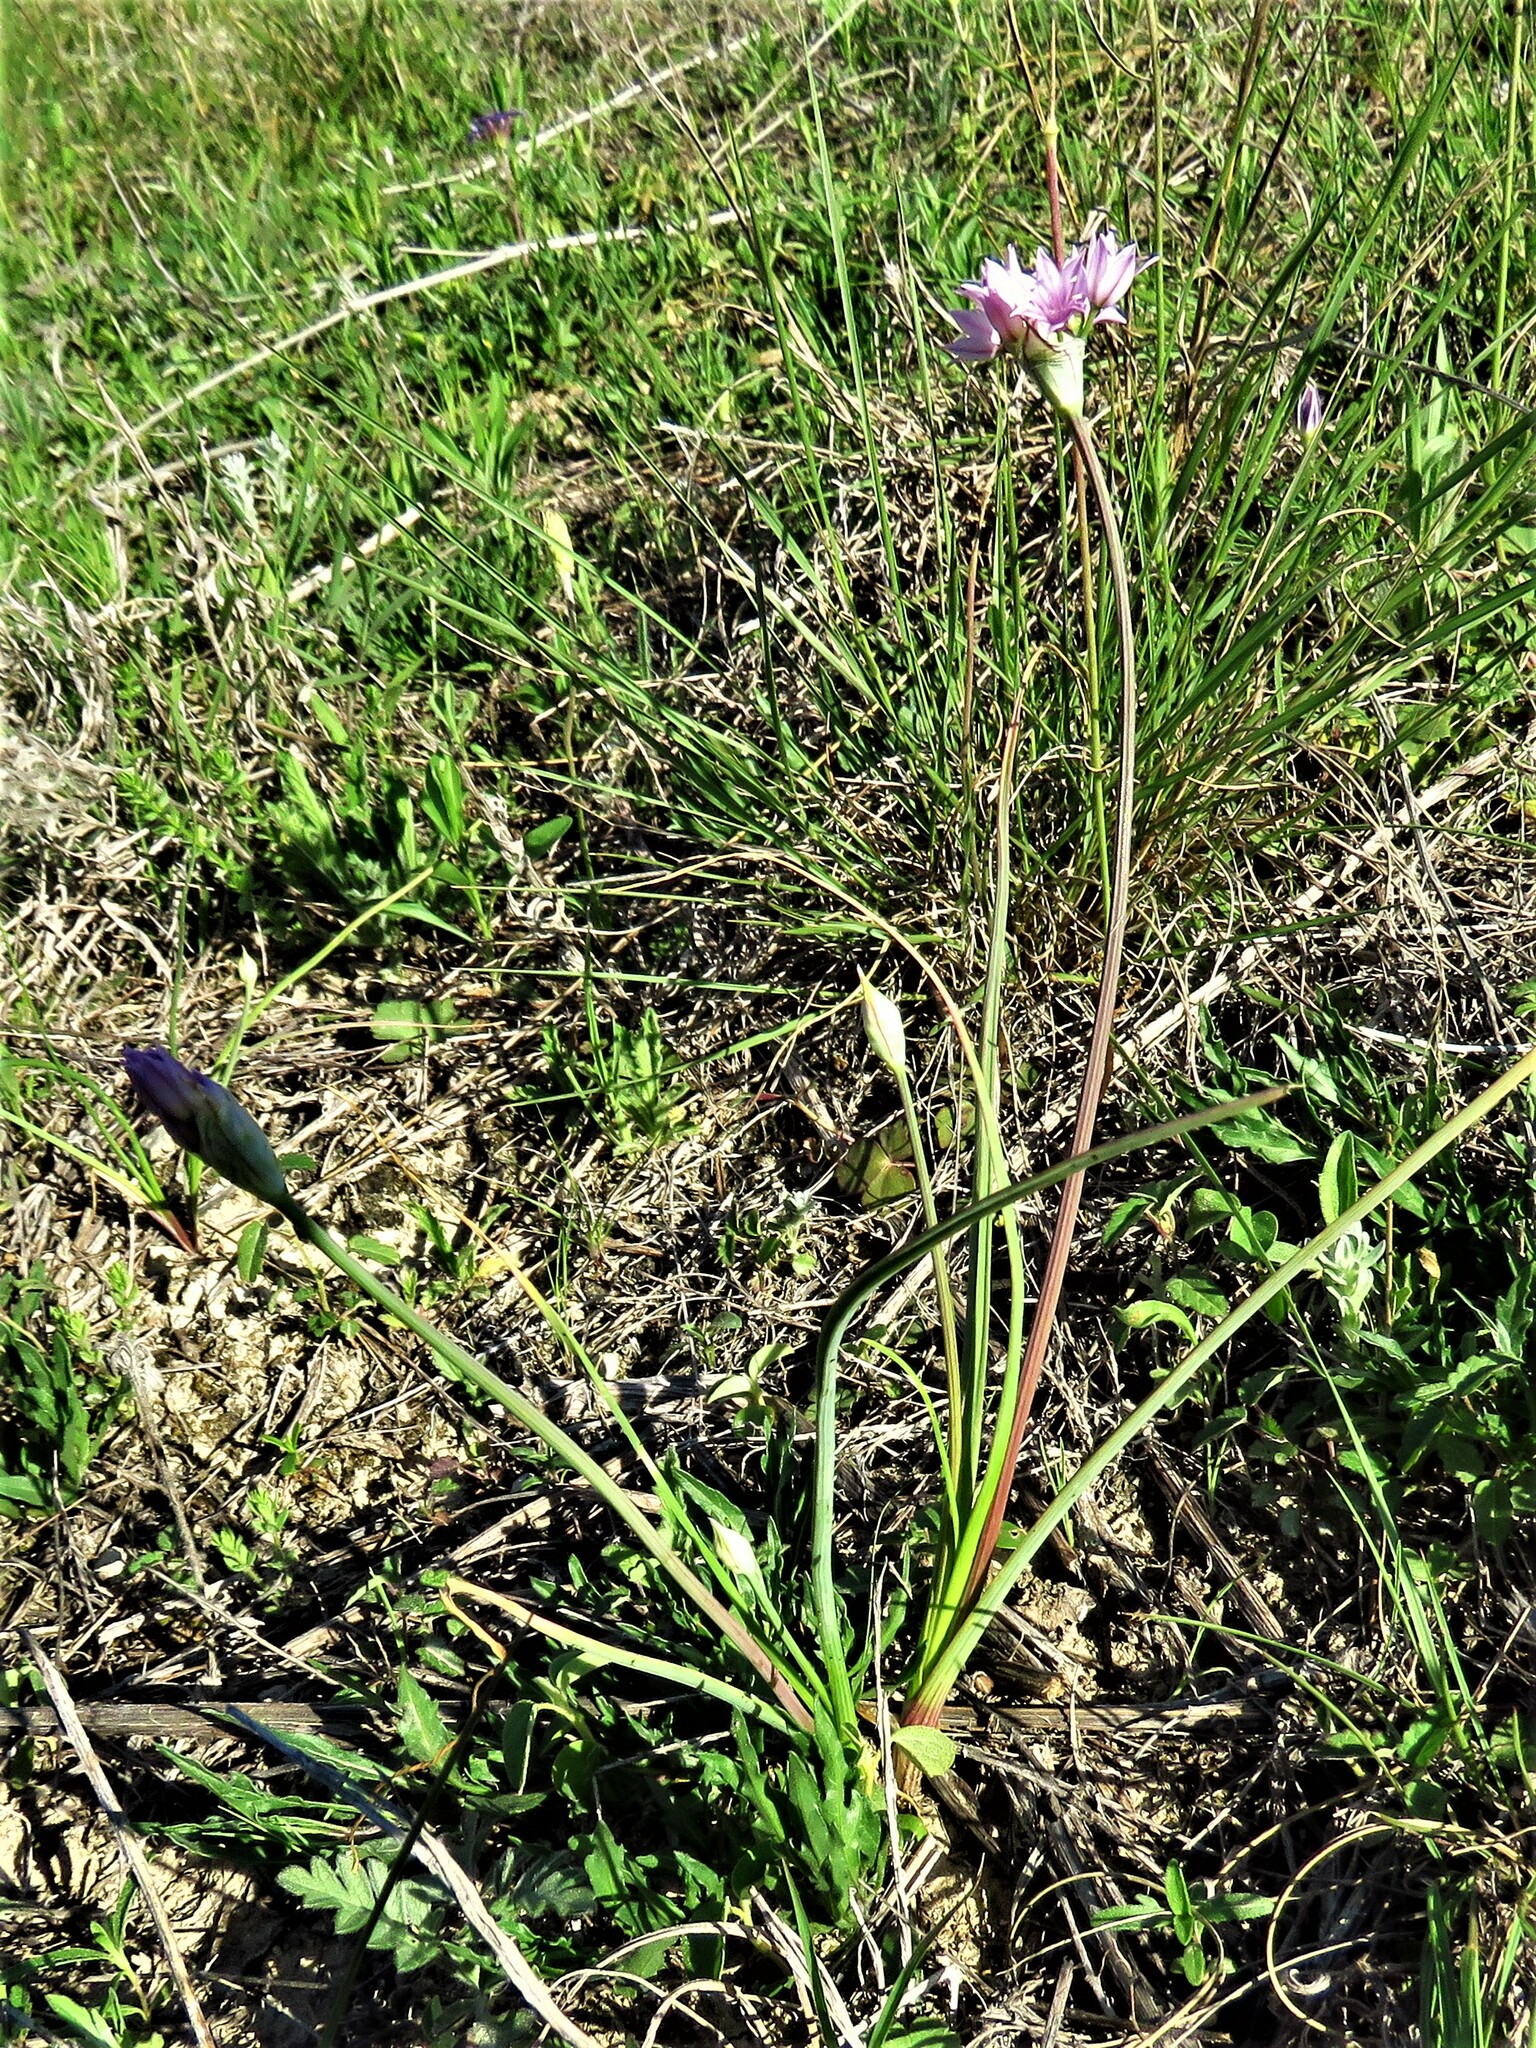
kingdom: Plantae
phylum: Tracheophyta
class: Liliopsida
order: Asparagales
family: Amaryllidaceae
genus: Allium
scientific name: Allium drummondii
